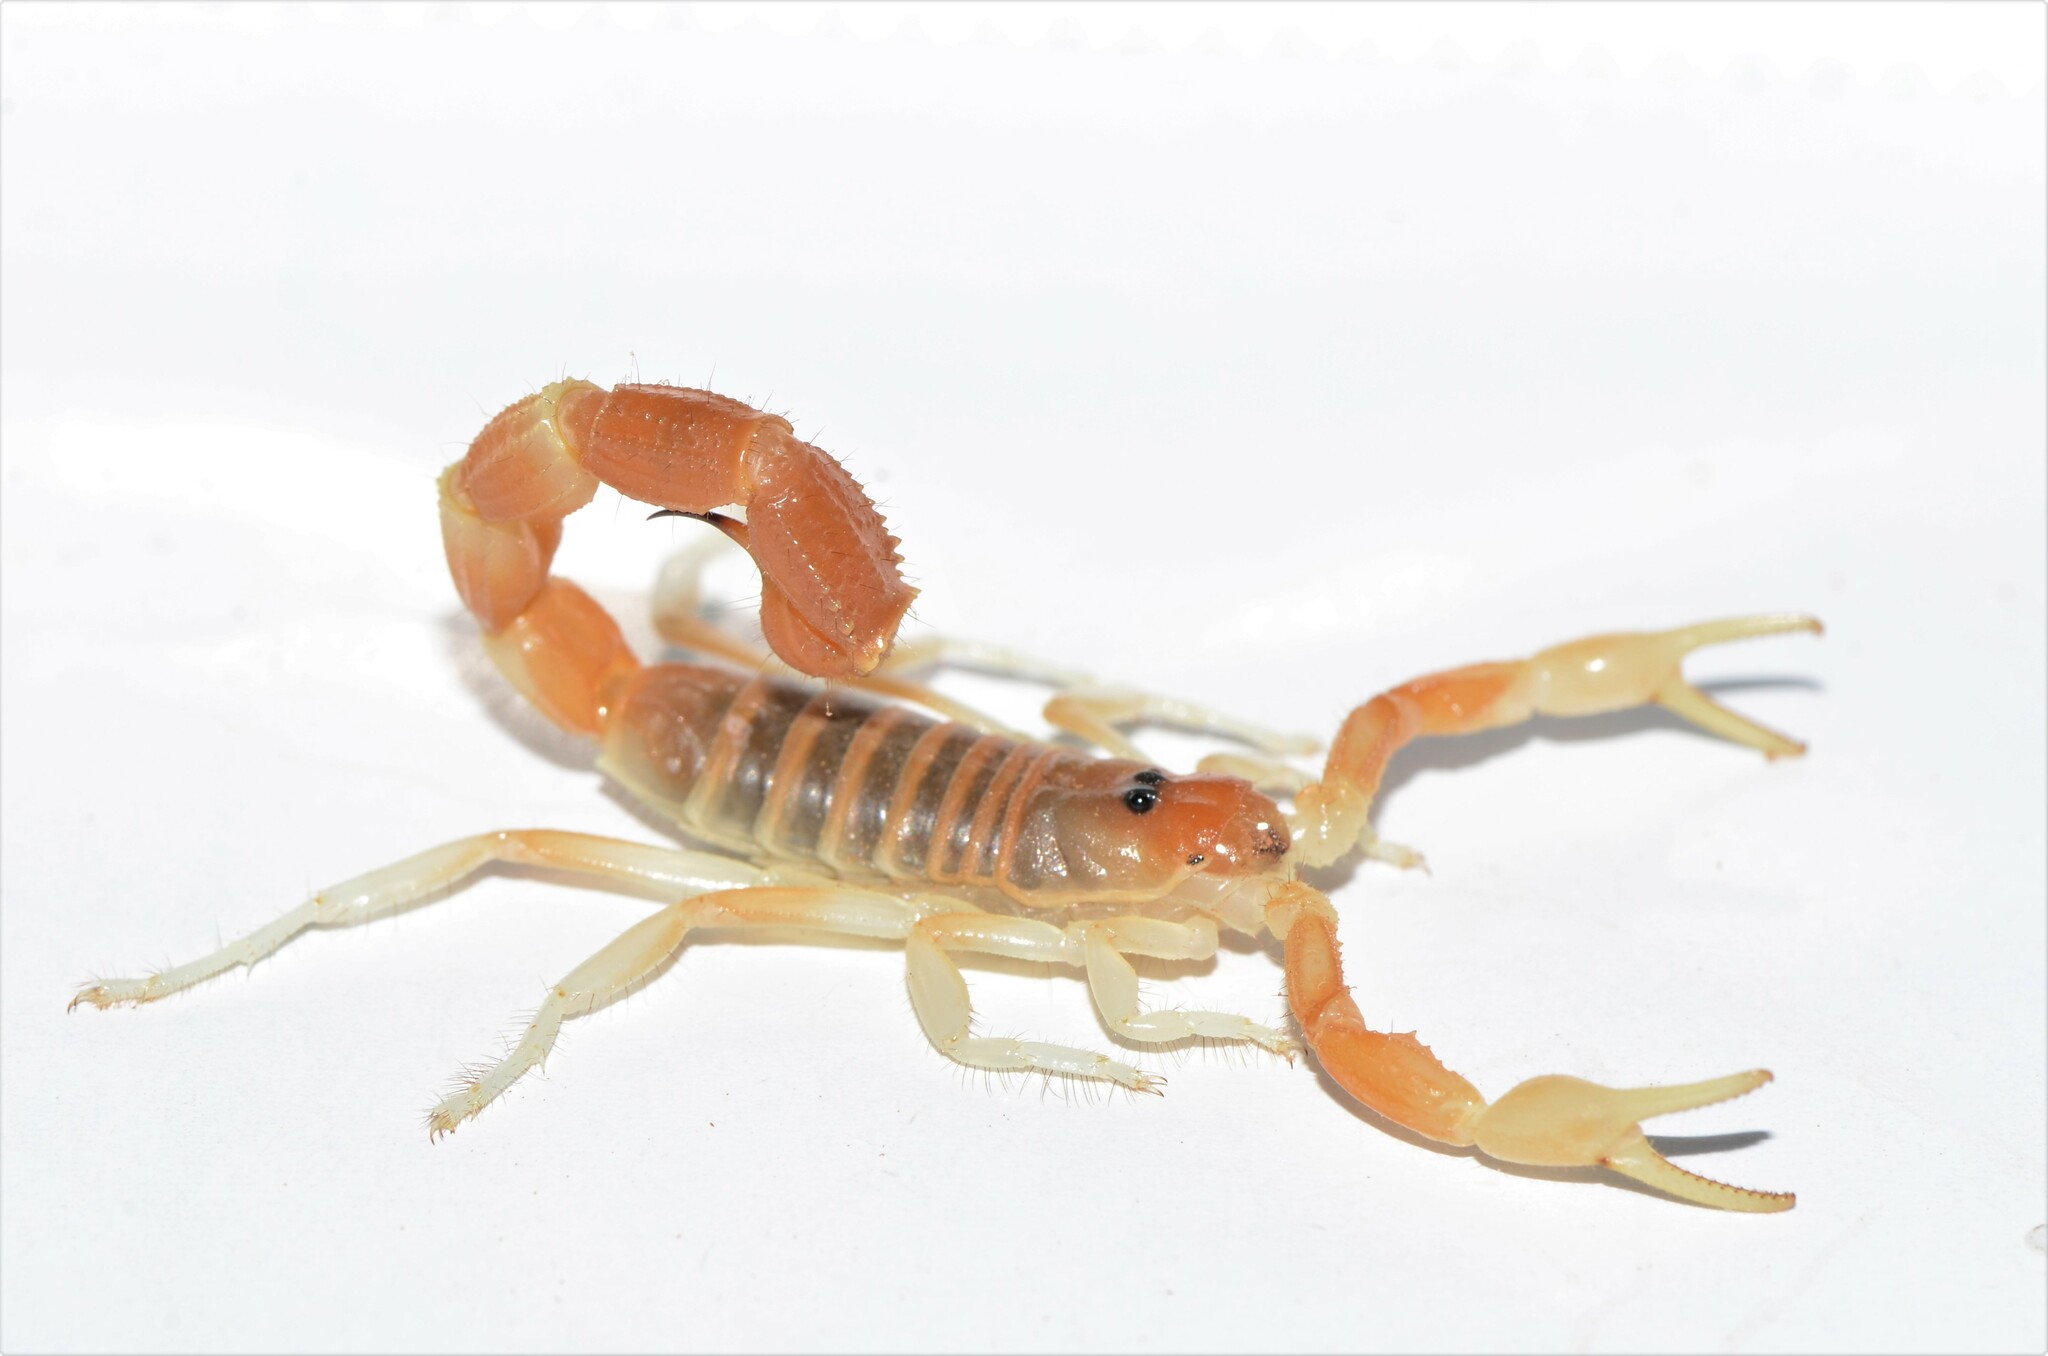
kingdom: Animalia
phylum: Arthropoda
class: Arachnida
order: Scorpiones
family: Buthidae
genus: Parabuthus
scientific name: Parabuthus laevifrons
